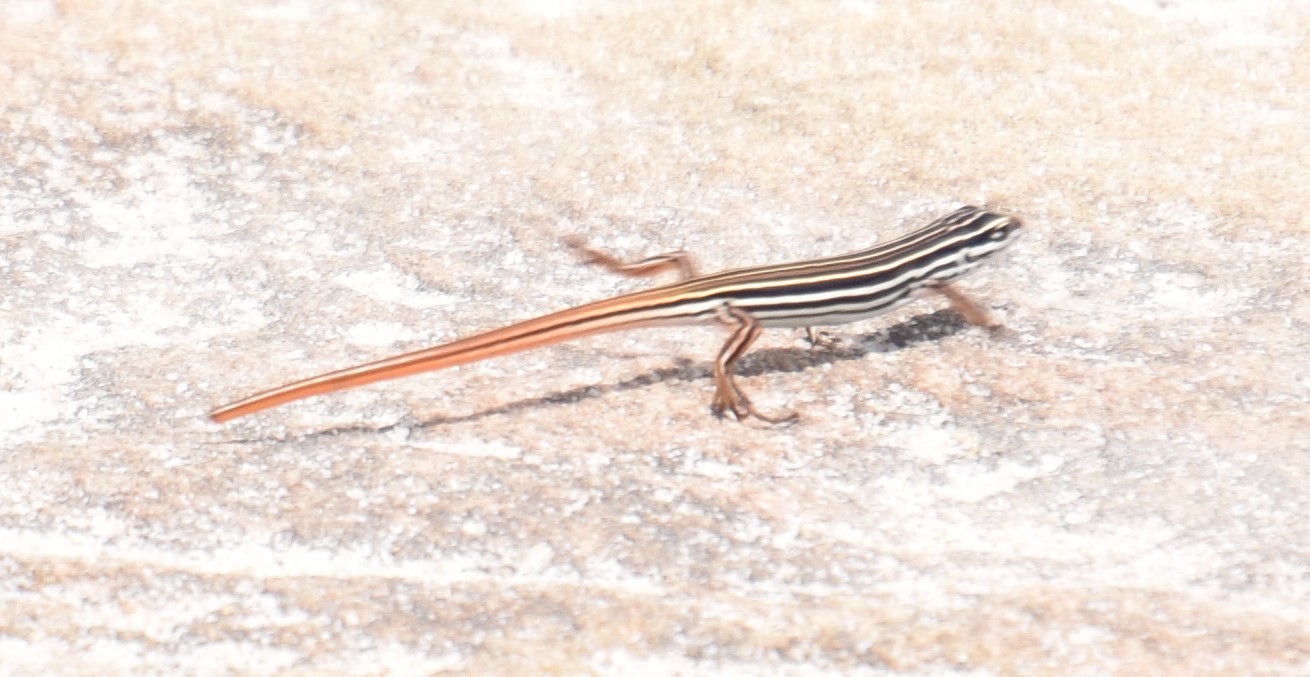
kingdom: Animalia
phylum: Chordata
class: Squamata
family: Scincidae
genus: Ctenotus
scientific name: Ctenotus taeniolatus
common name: Copper-tailed skink
